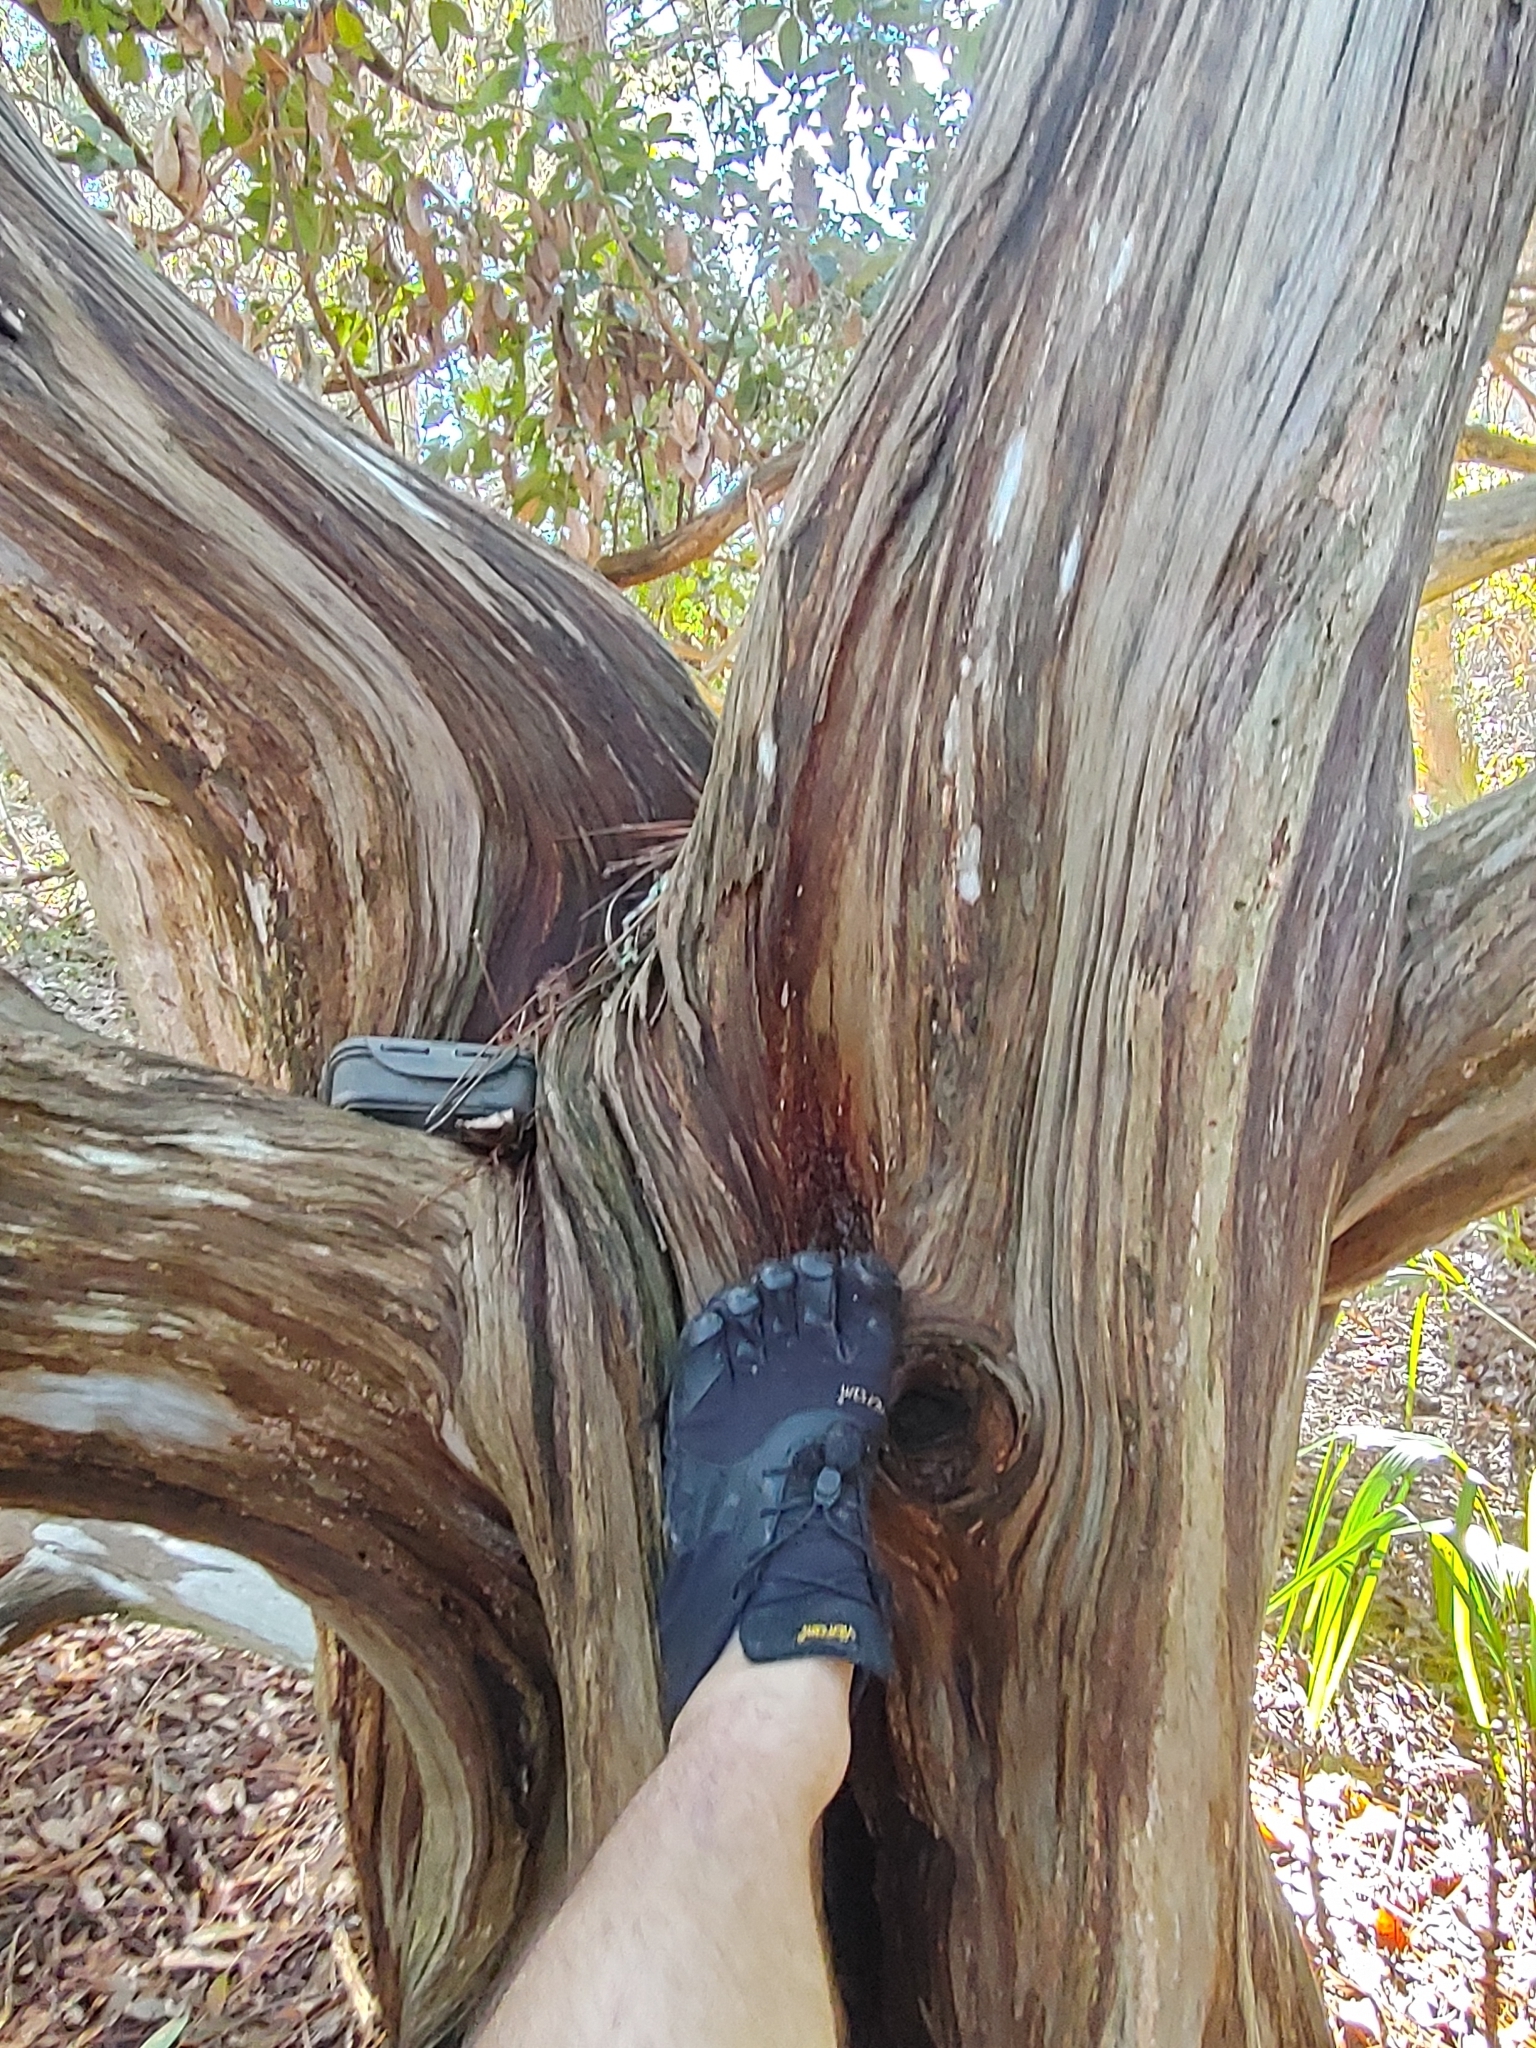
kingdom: Plantae
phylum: Tracheophyta
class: Pinopsida
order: Pinales
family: Cupressaceae
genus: Juniperus
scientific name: Juniperus virginiana
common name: Red juniper
